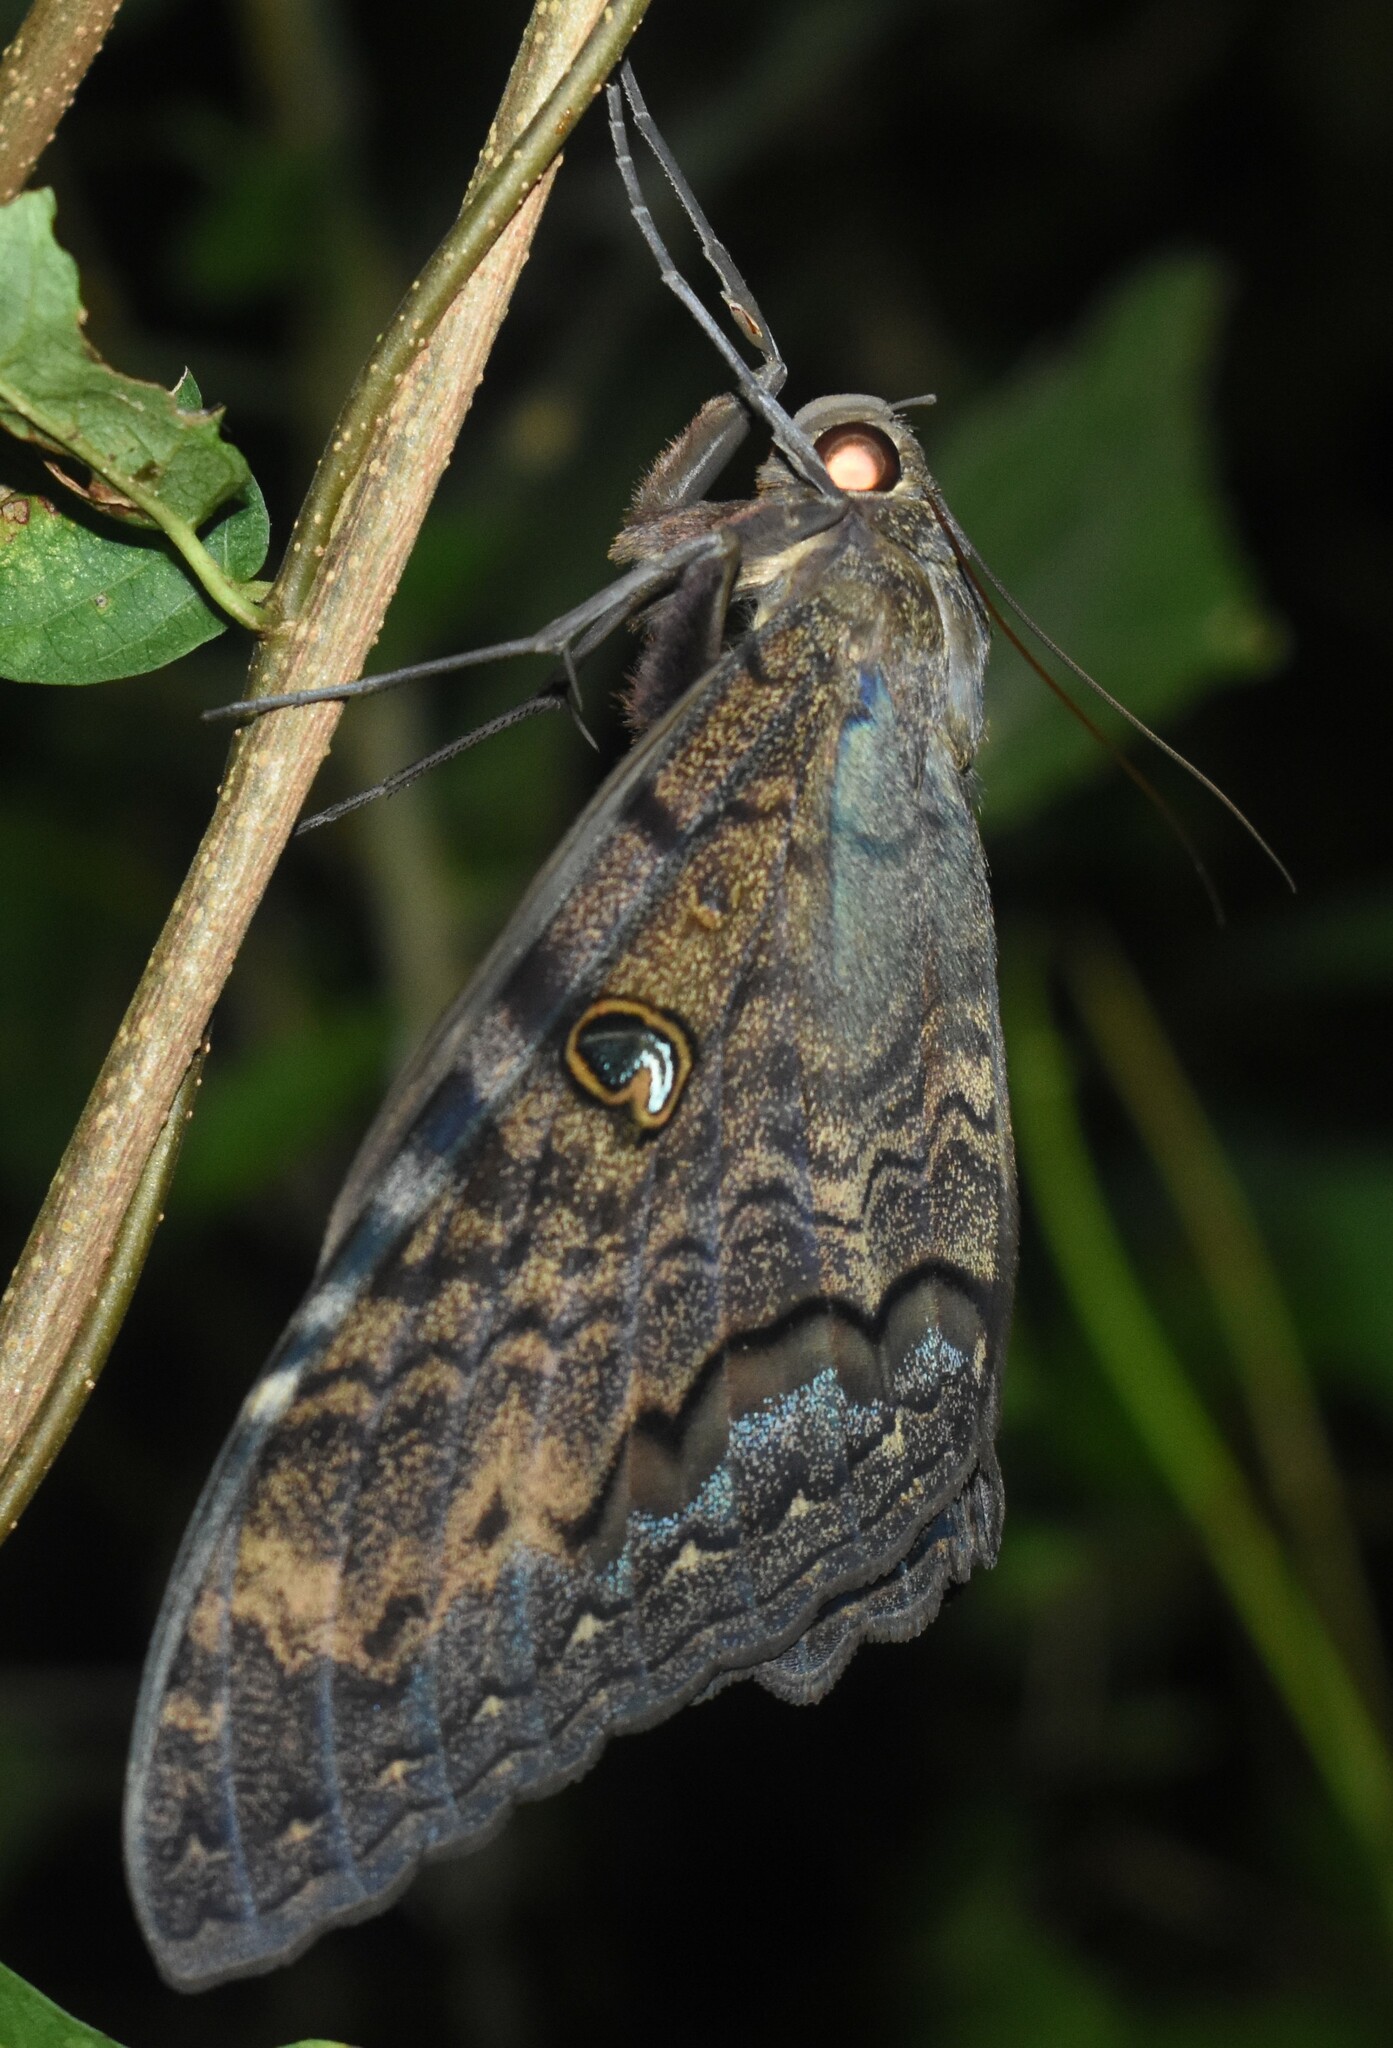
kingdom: Animalia
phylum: Arthropoda
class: Insecta
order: Lepidoptera
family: Erebidae
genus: Ascalapha
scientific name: Ascalapha odorata
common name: Black witch
